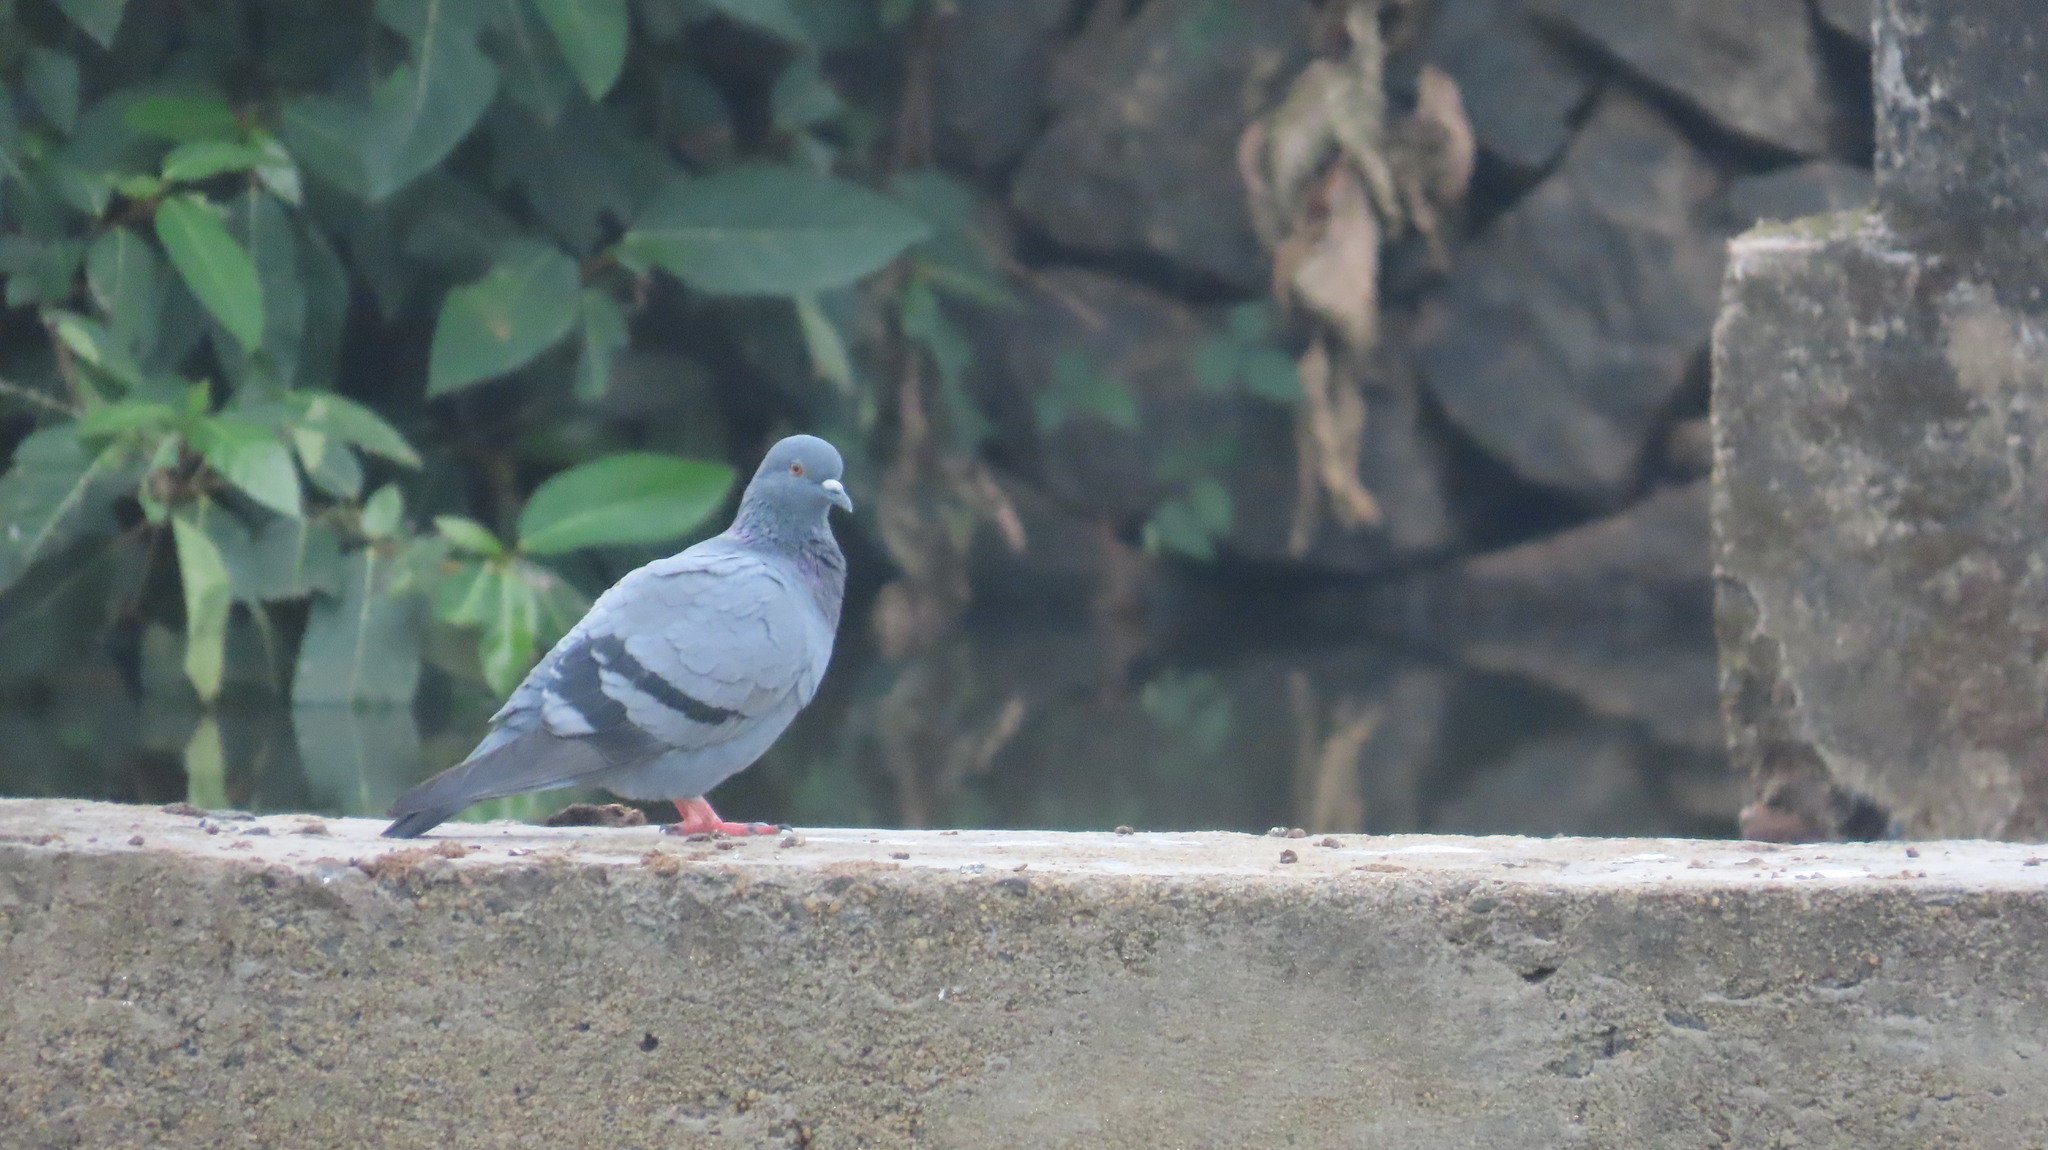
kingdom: Animalia
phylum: Chordata
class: Aves
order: Columbiformes
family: Columbidae
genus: Columba
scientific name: Columba livia
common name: Rock pigeon
